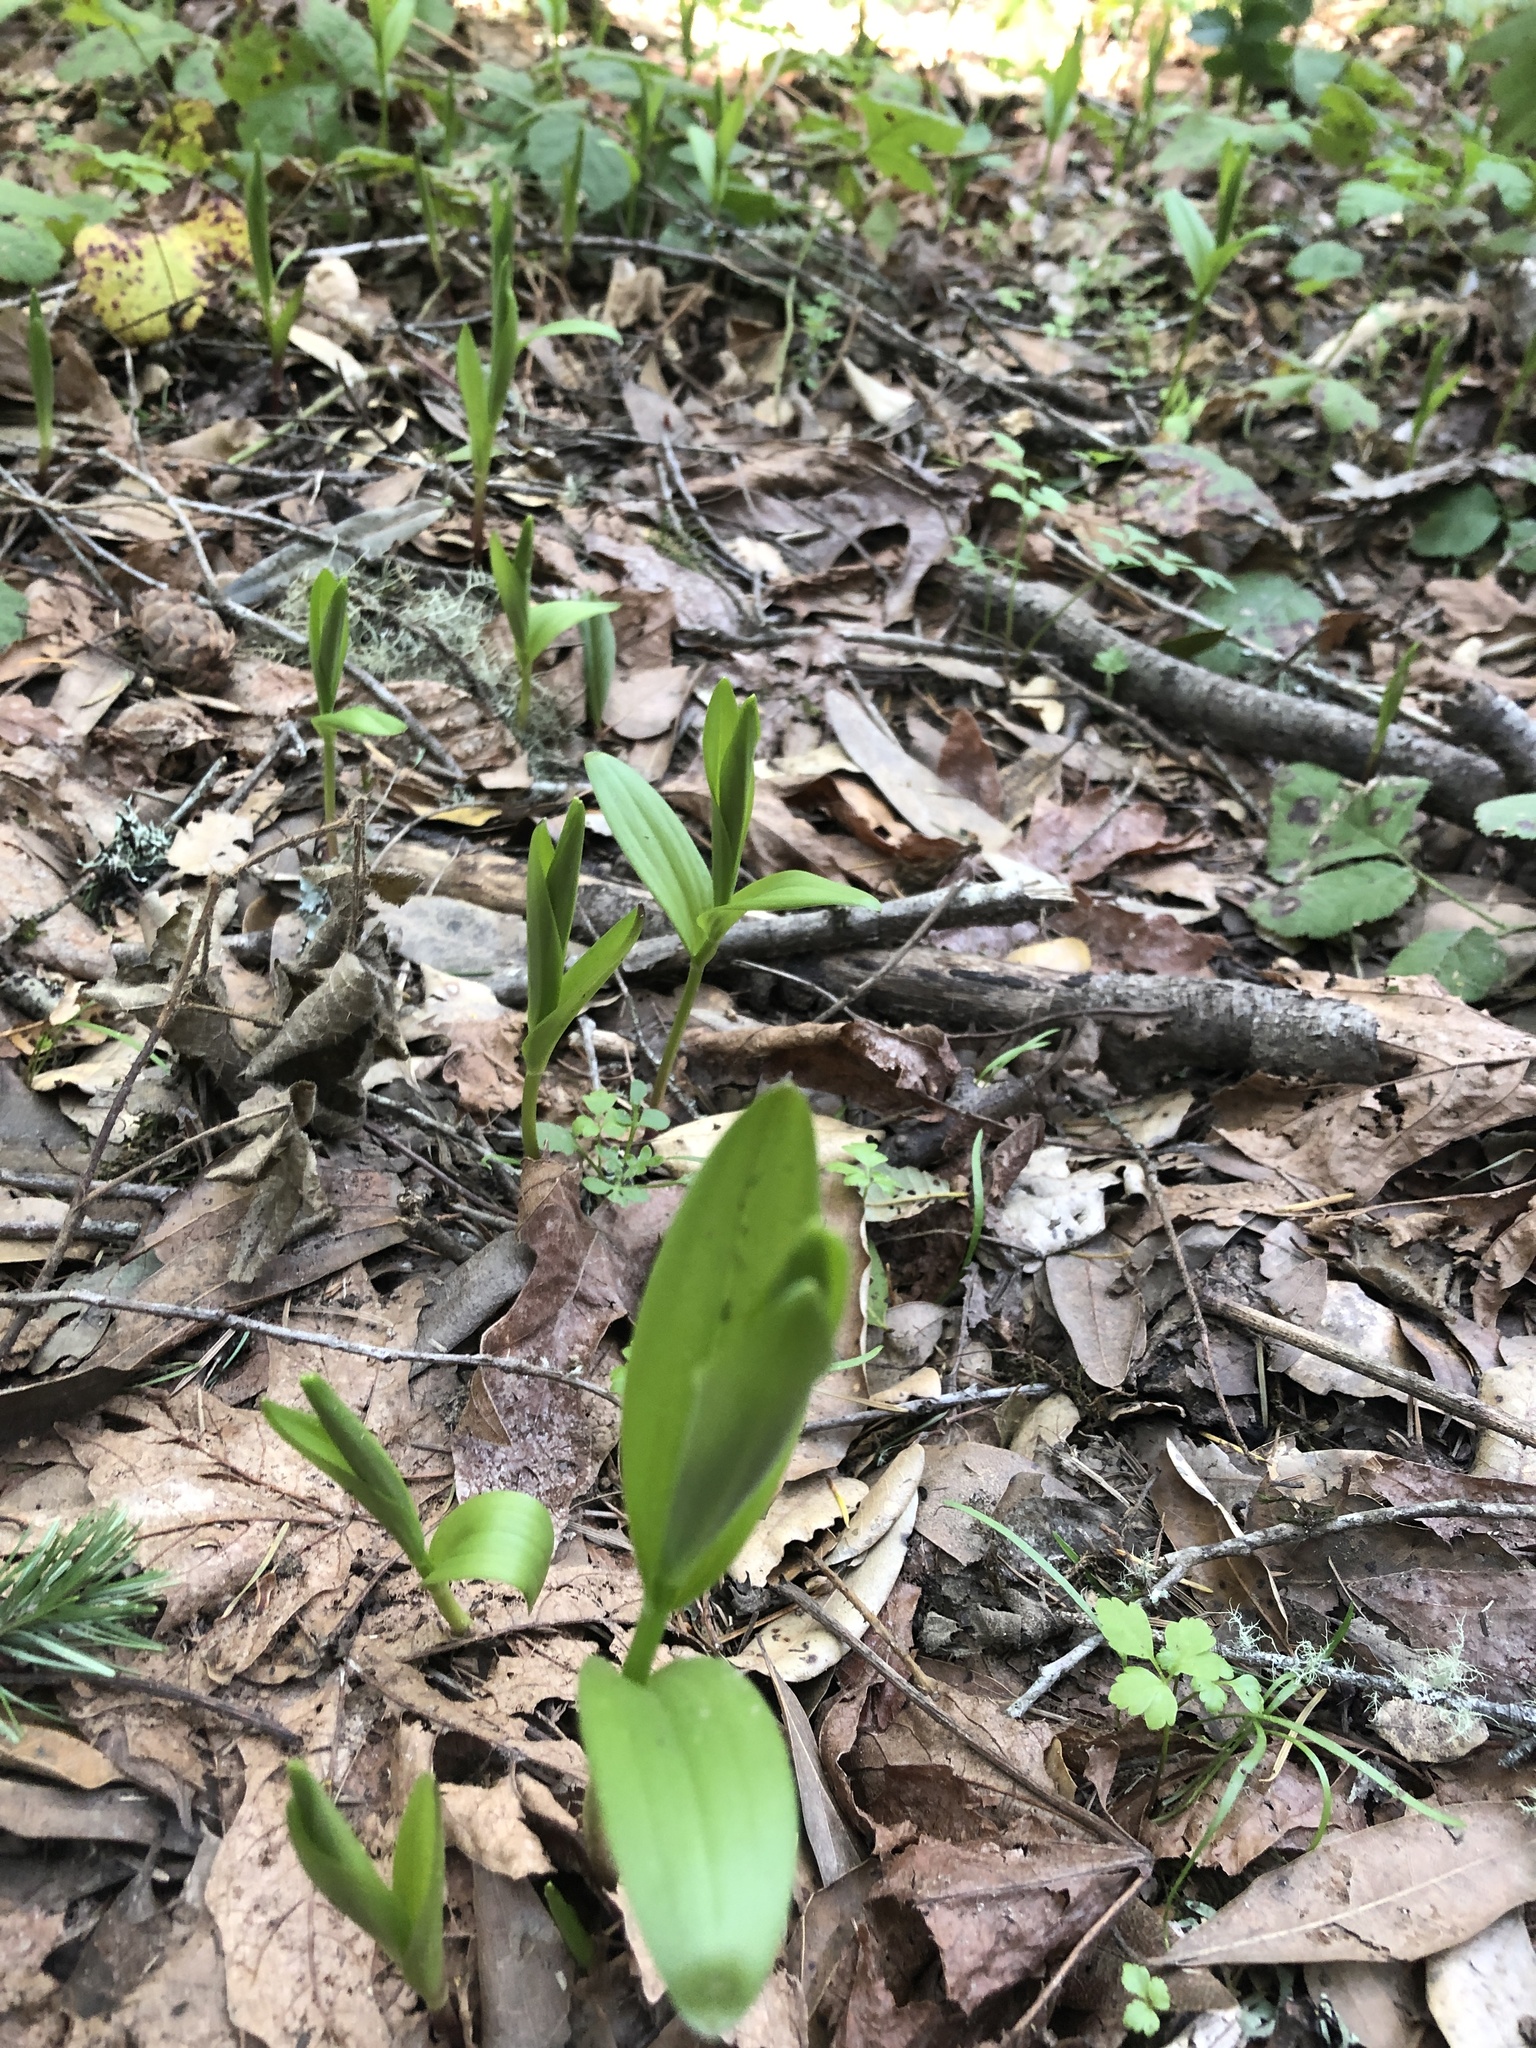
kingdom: Plantae
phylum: Tracheophyta
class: Liliopsida
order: Asparagales
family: Asparagaceae
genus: Maianthemum
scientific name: Maianthemum stellatum
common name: Little false solomon's seal
